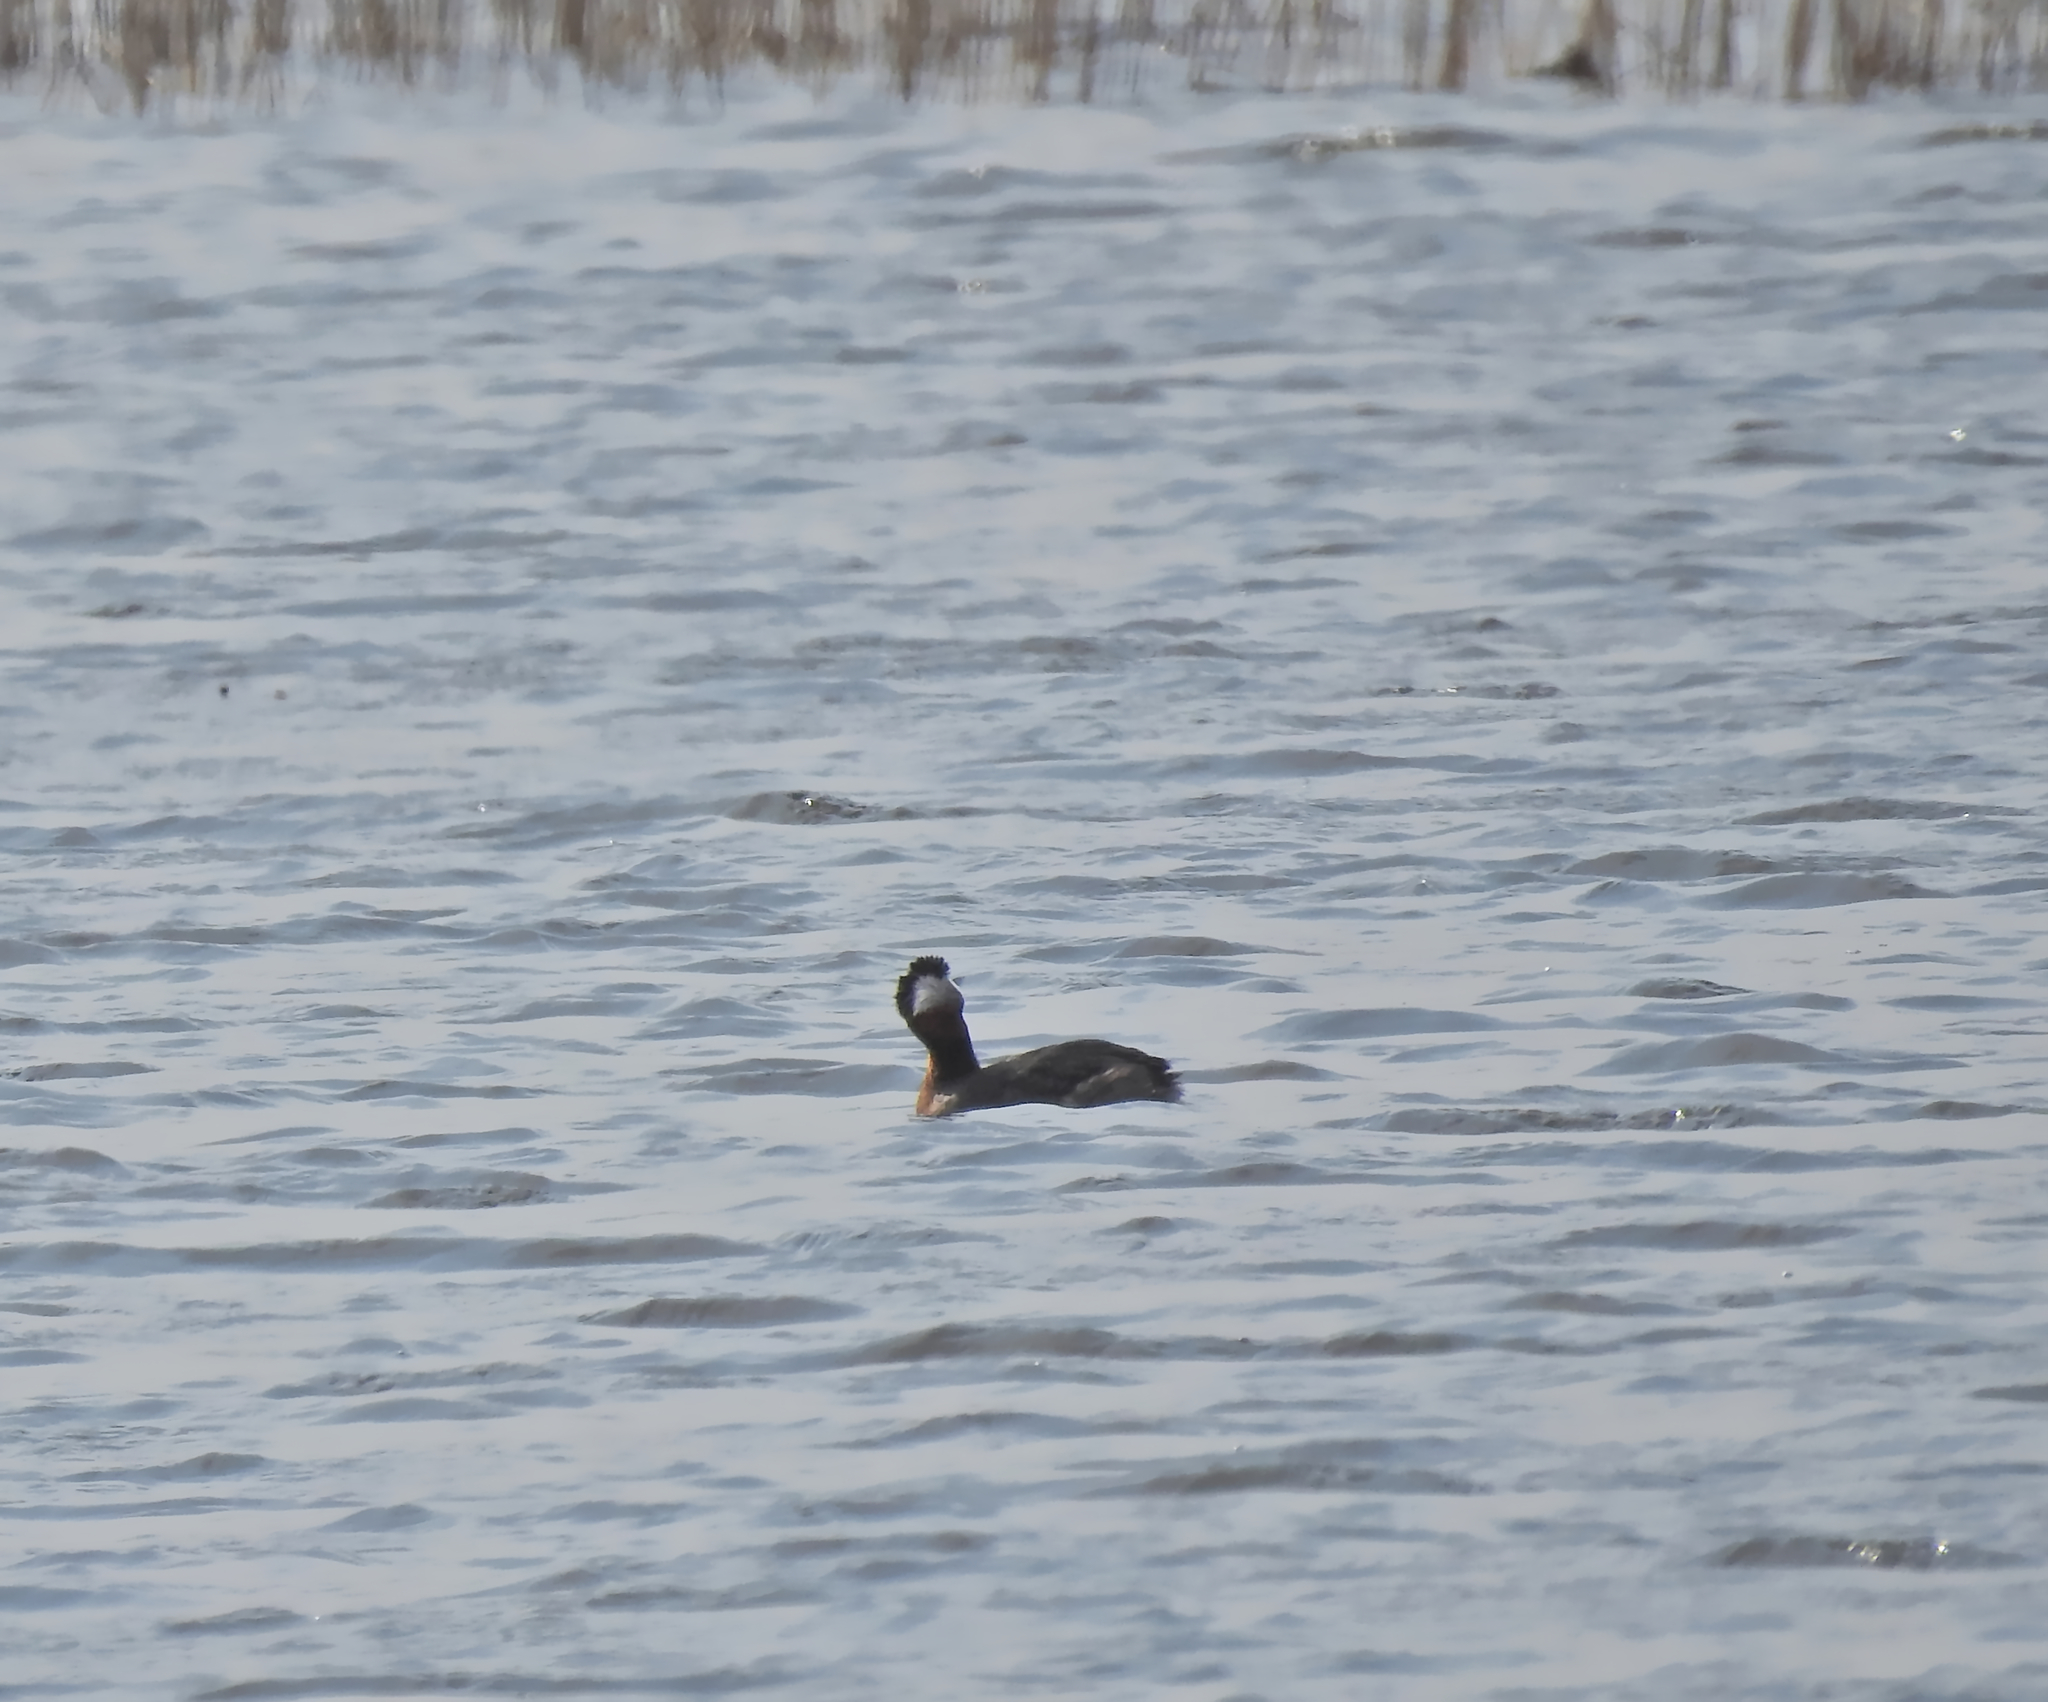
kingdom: Animalia
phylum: Chordata
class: Aves
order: Podicipediformes
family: Podicipedidae
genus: Podiceps
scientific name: Podiceps grisegena
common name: Red-necked grebe
